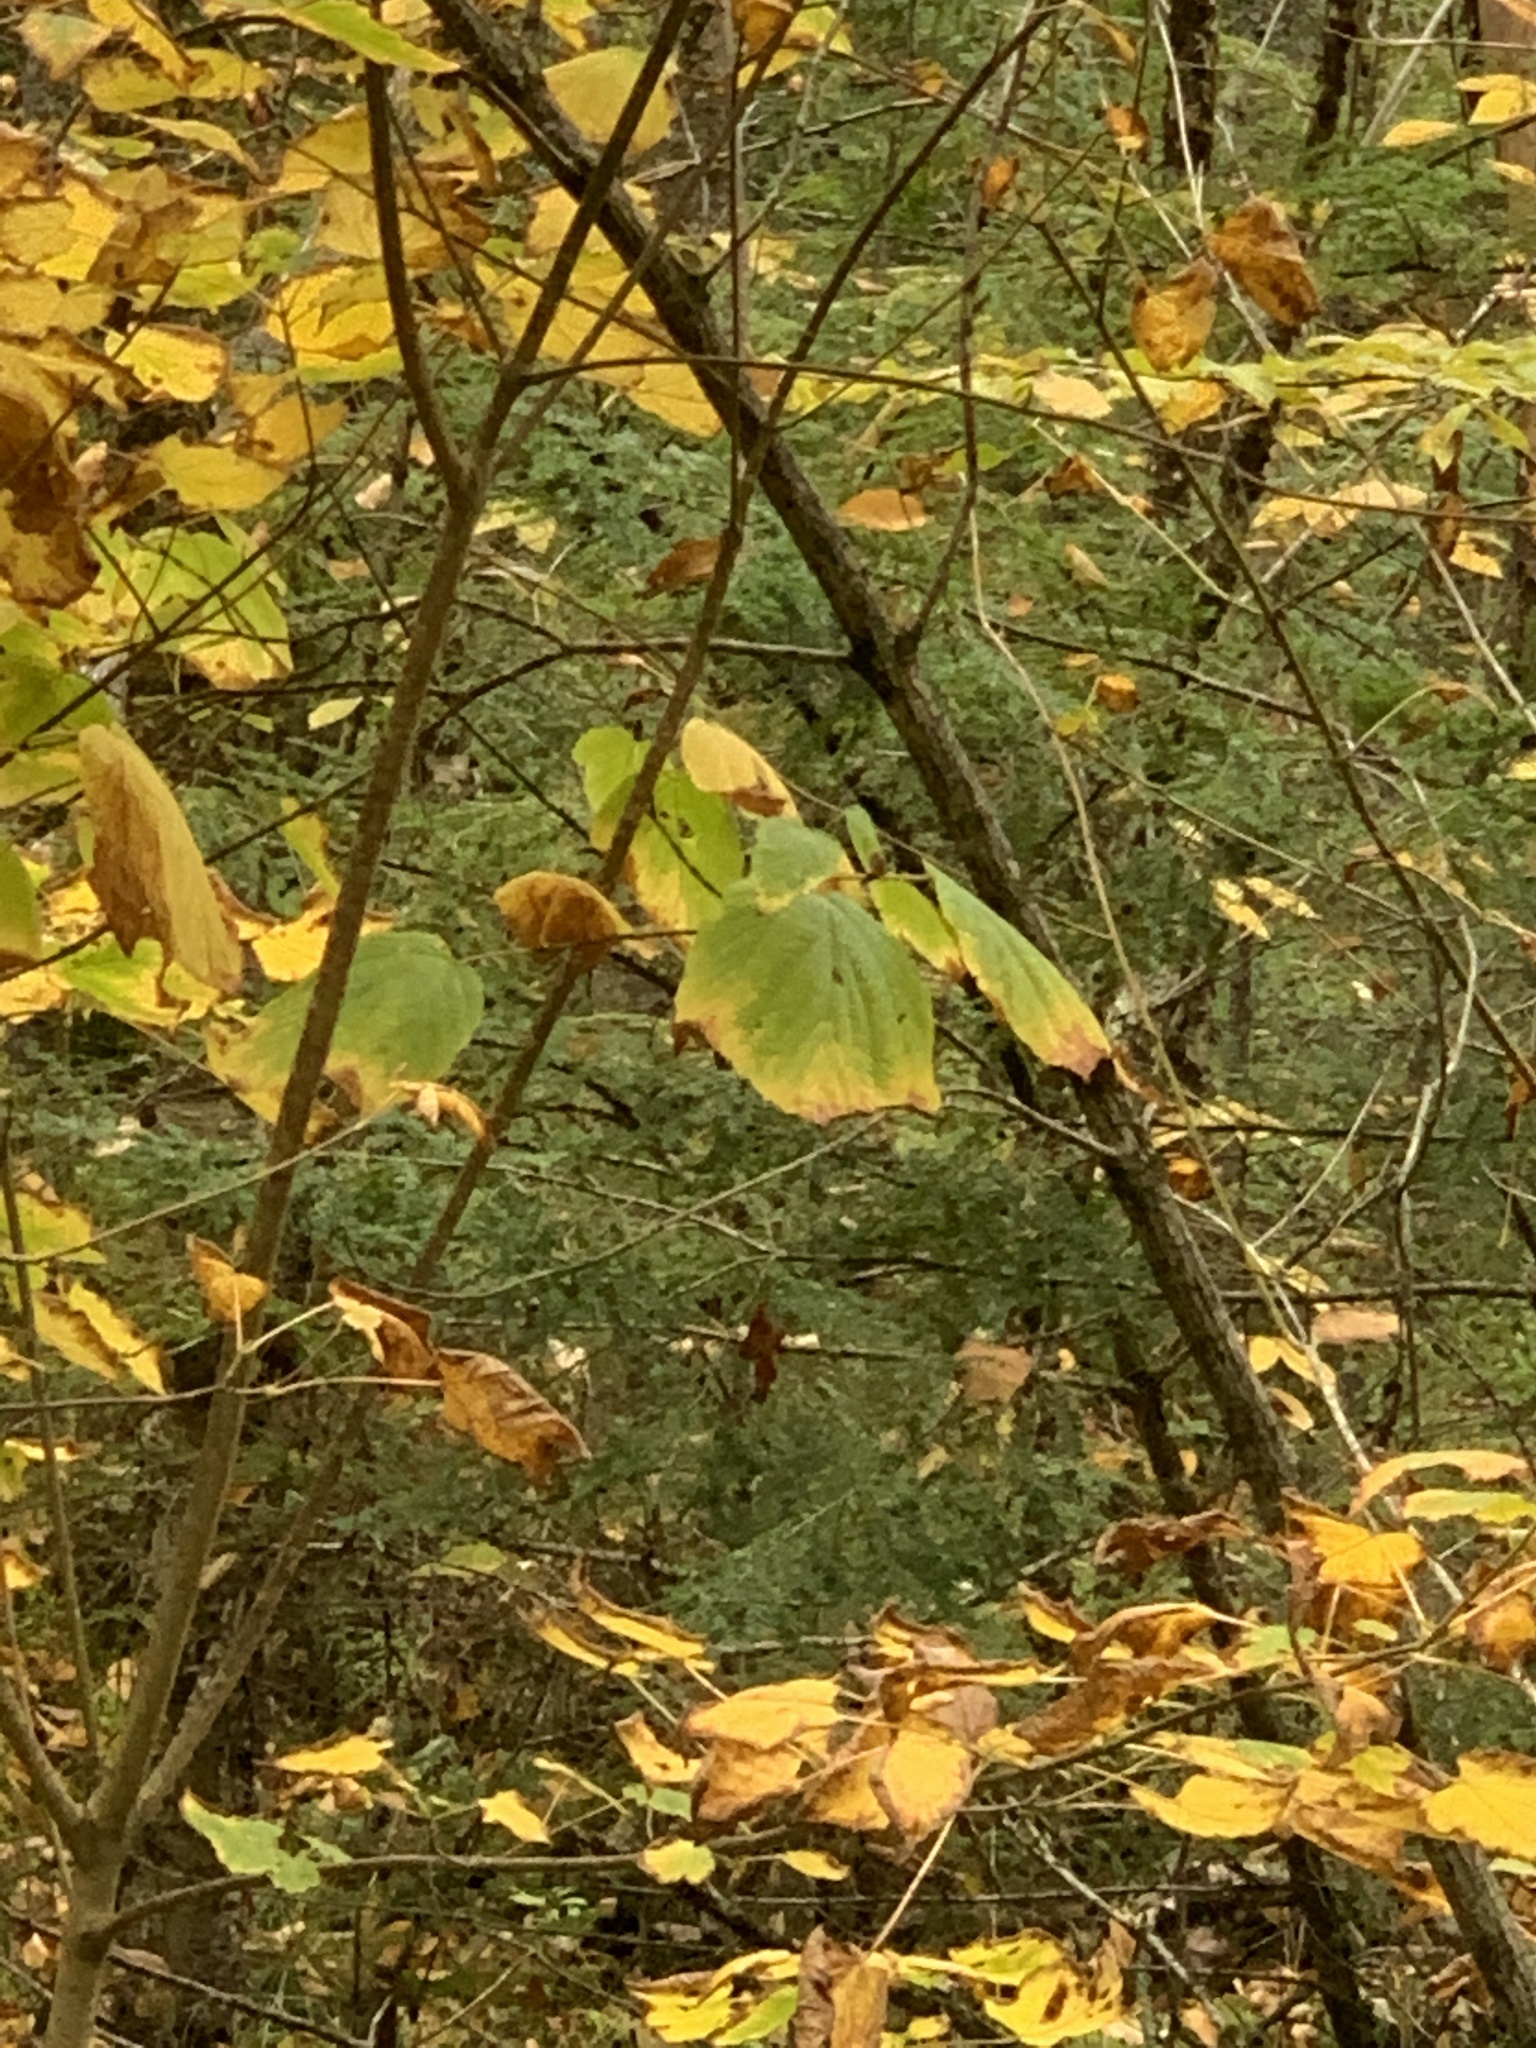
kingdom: Plantae
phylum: Tracheophyta
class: Magnoliopsida
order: Sapindales
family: Sapindaceae
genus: Acer
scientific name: Acer pensylvanicum
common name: Moosewood
